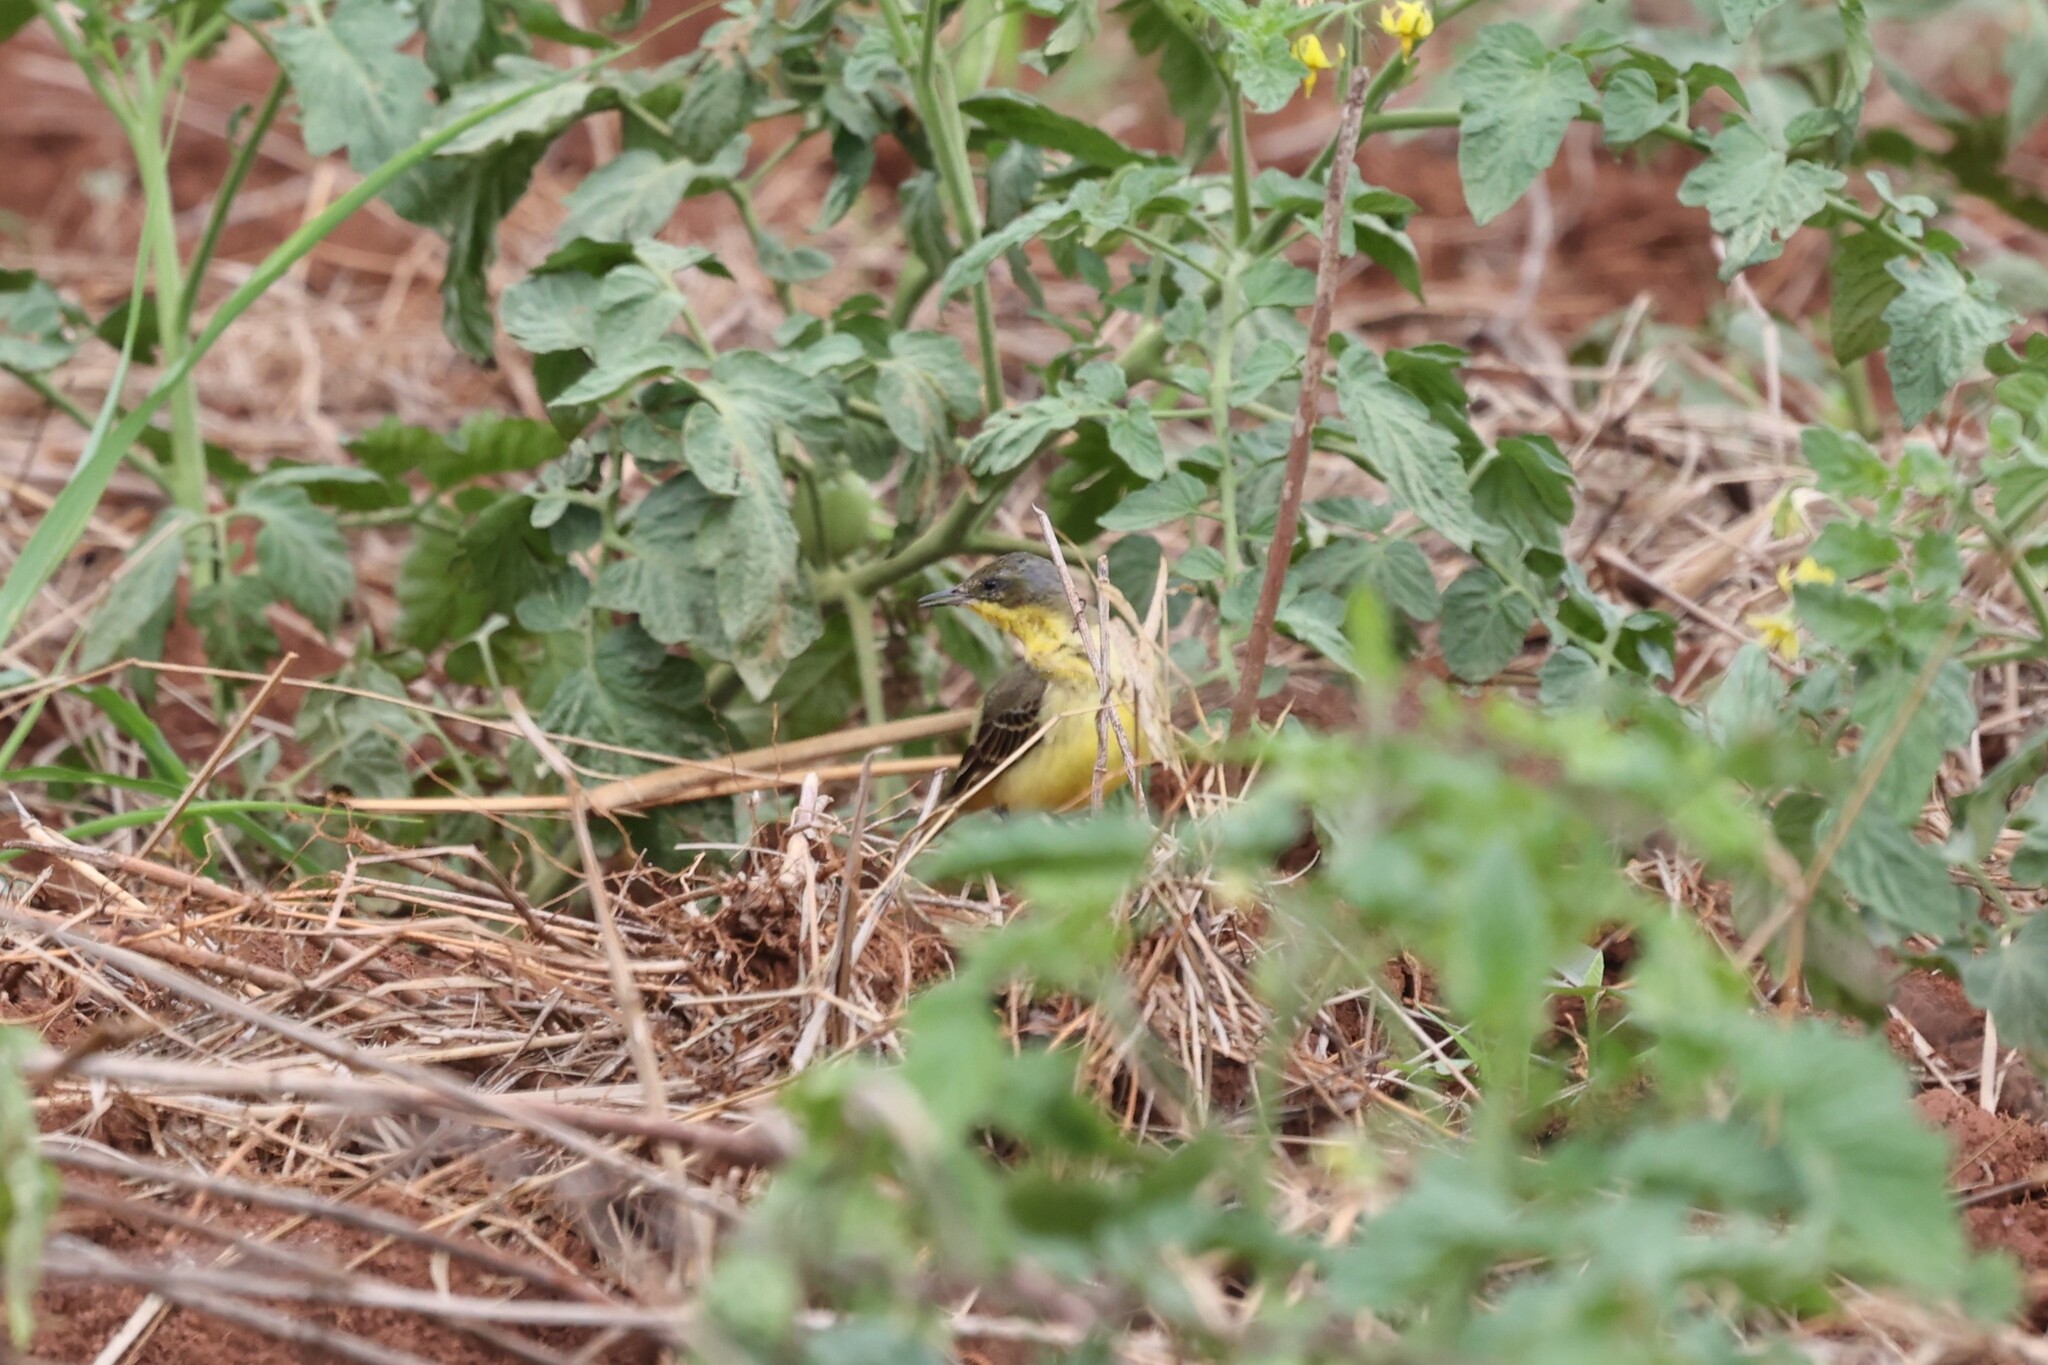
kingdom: Animalia
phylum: Chordata
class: Aves
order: Passeriformes
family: Motacillidae
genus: Motacilla
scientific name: Motacilla flava
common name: Western yellow wagtail
